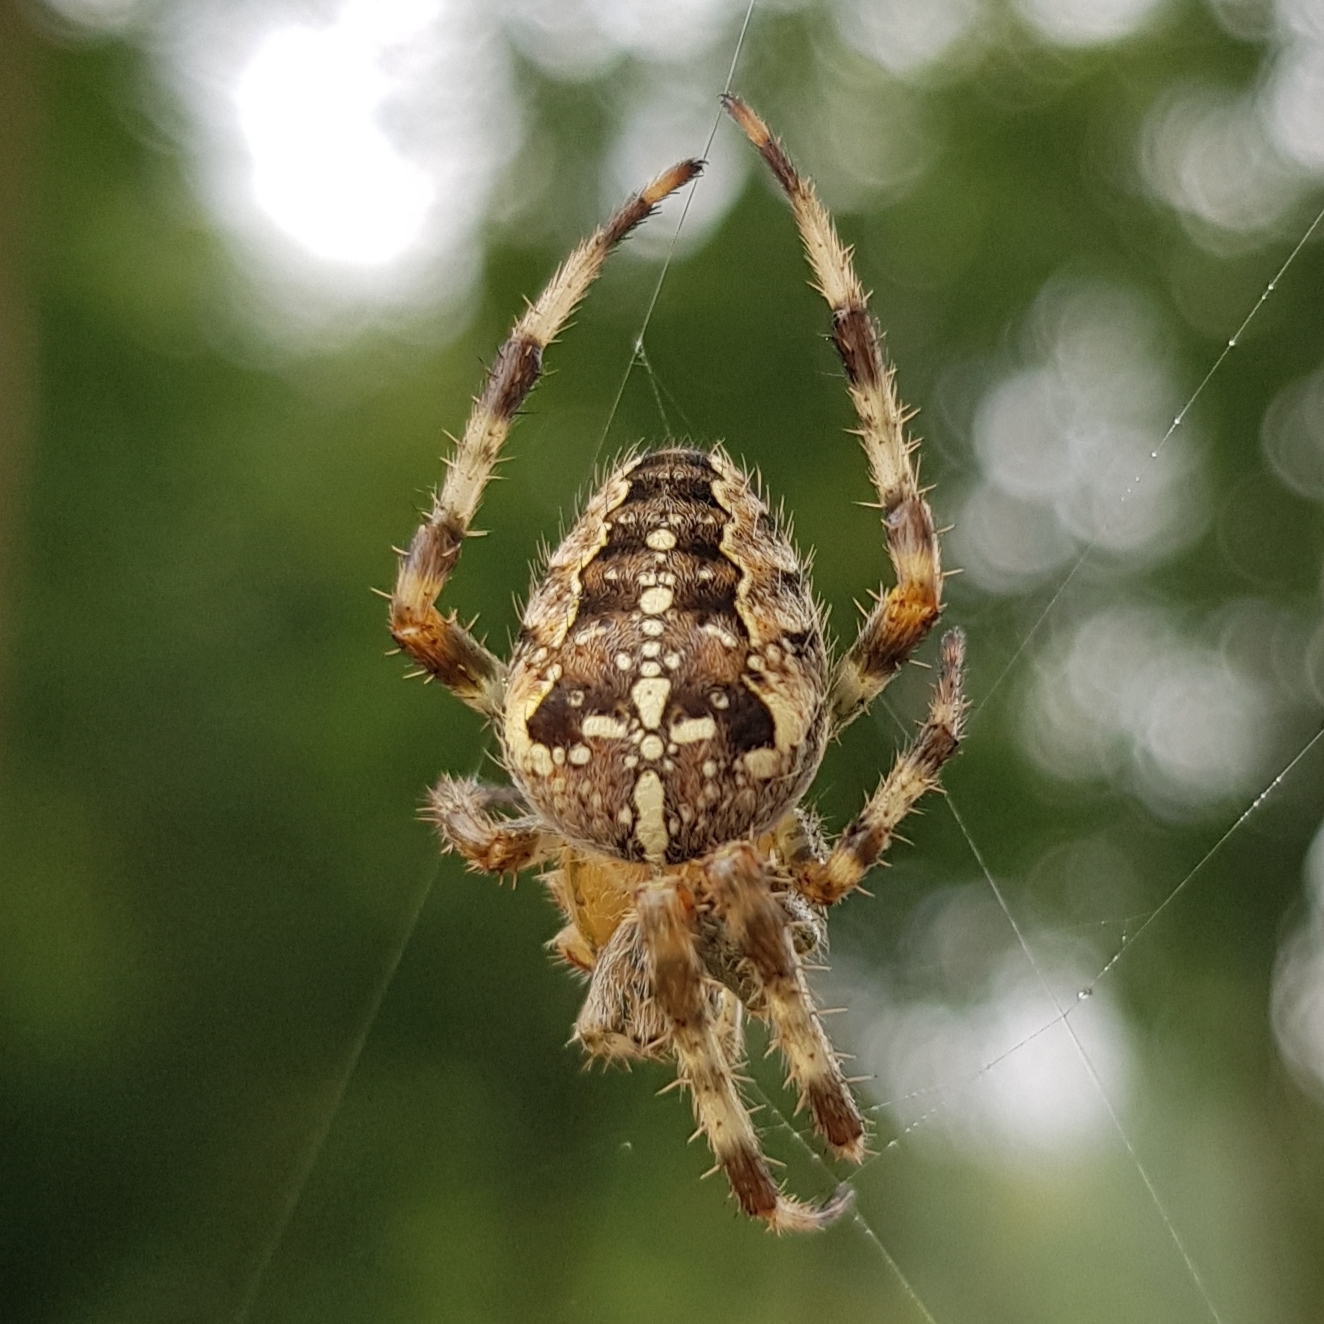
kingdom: Animalia
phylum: Arthropoda
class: Arachnida
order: Araneae
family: Araneidae
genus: Araneus
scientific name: Araneus diadematus
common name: Cross orbweaver
